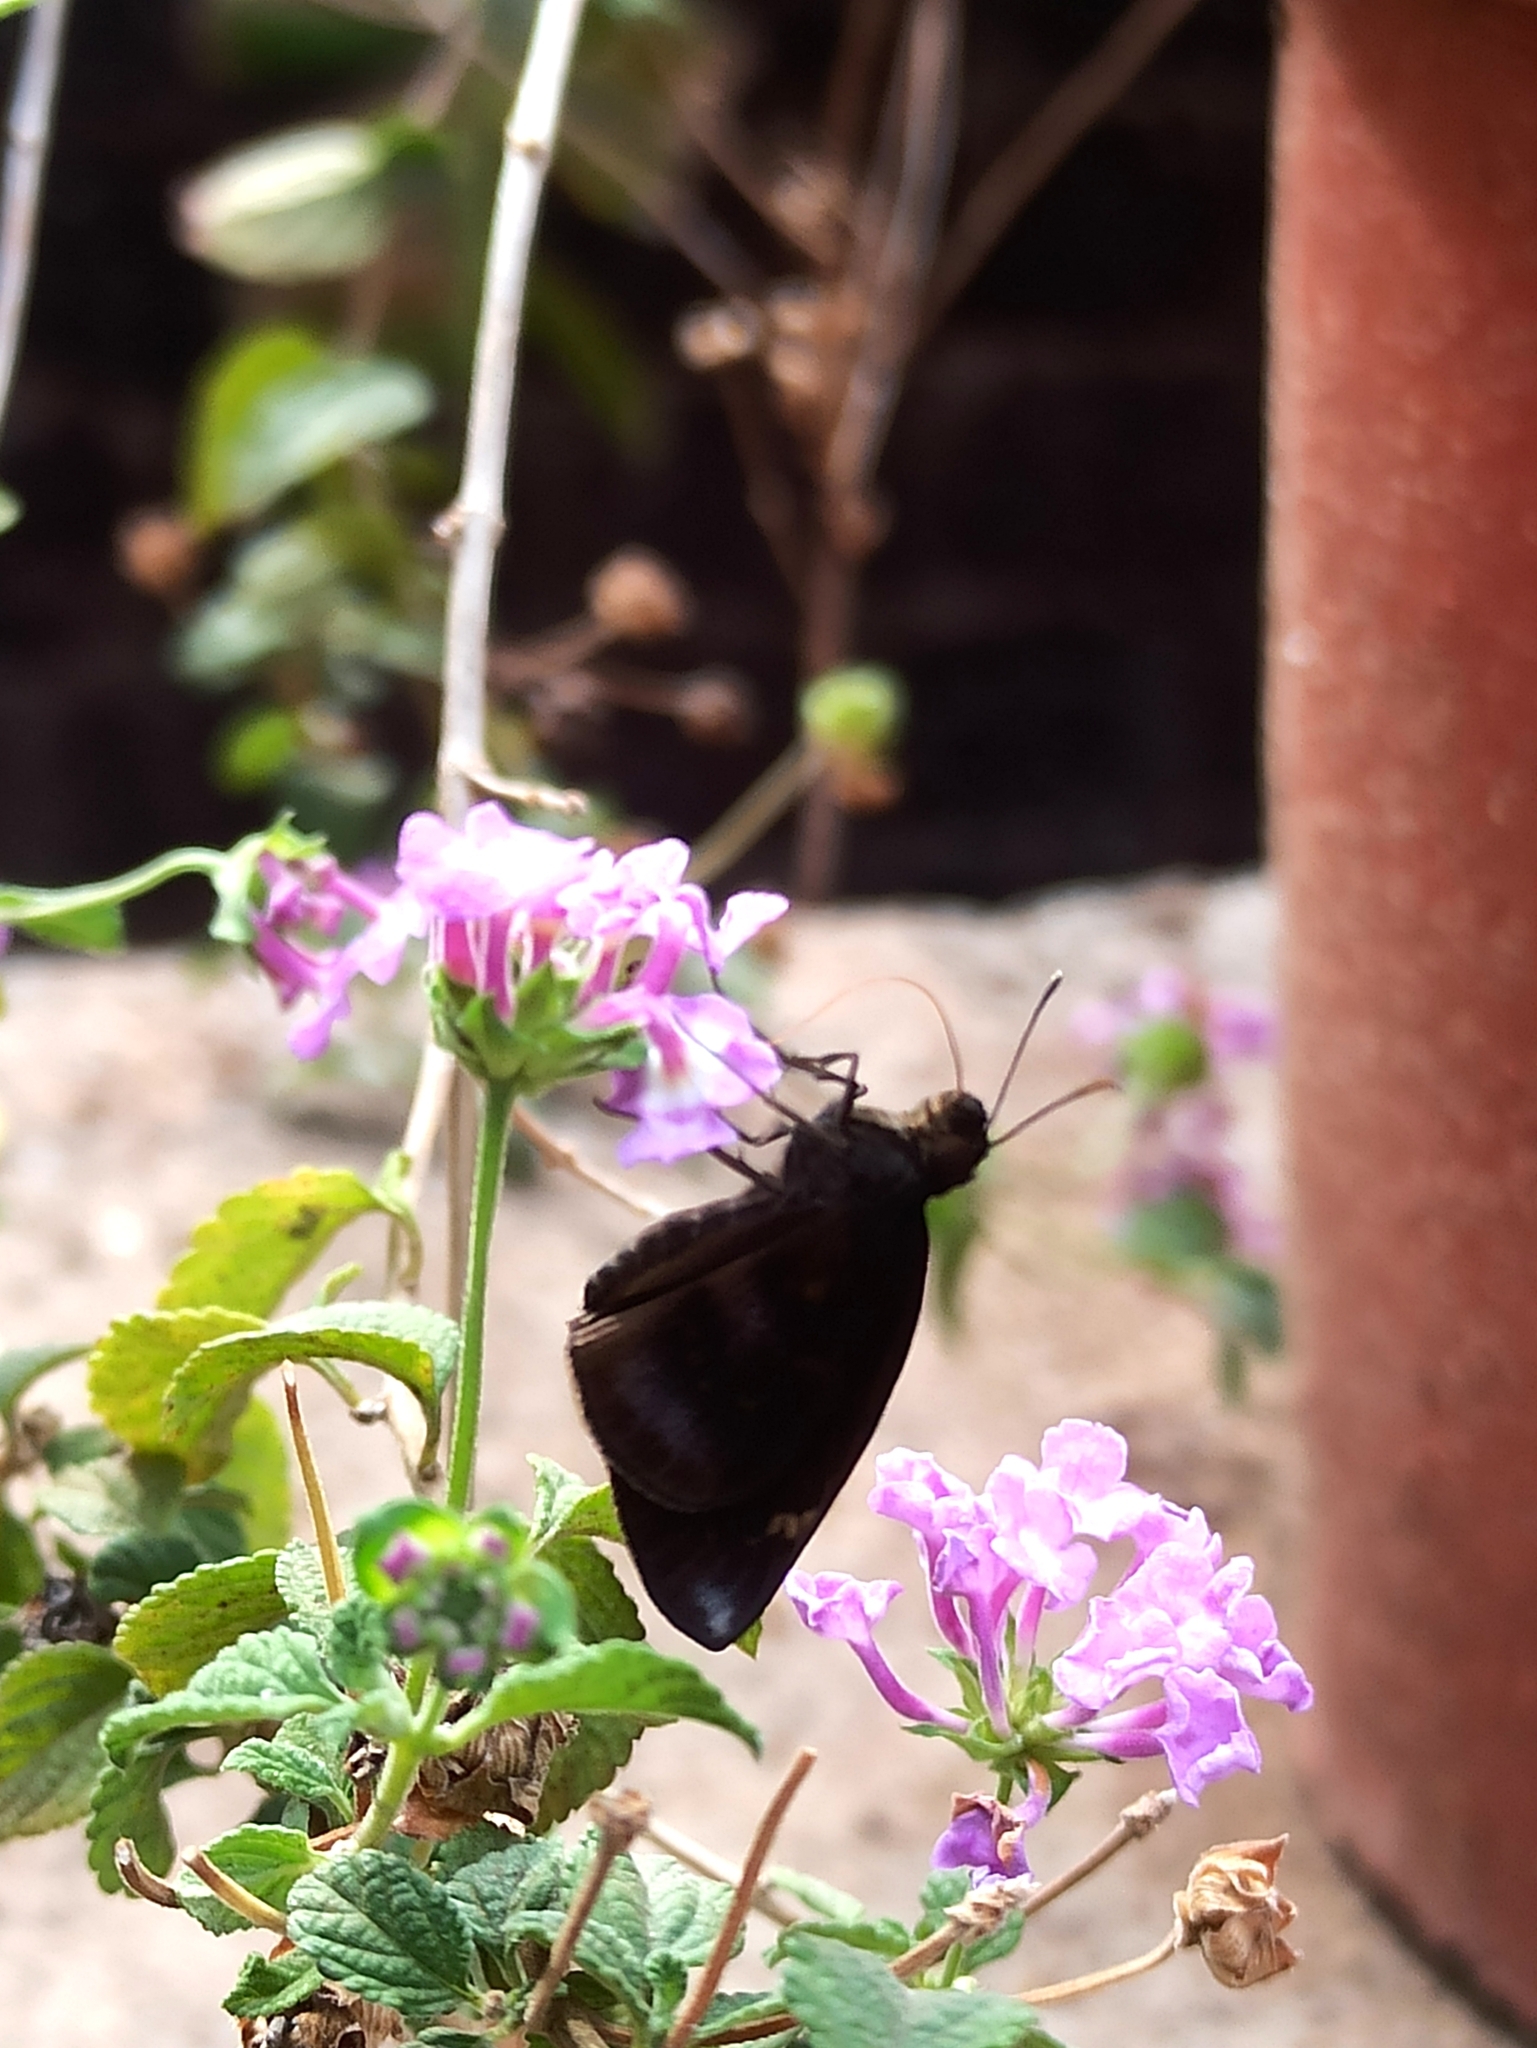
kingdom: Animalia
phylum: Arthropoda
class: Insecta
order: Lepidoptera
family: Hesperiidae
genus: Gangara
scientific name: Gangara thyrsis
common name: Giant redeye
